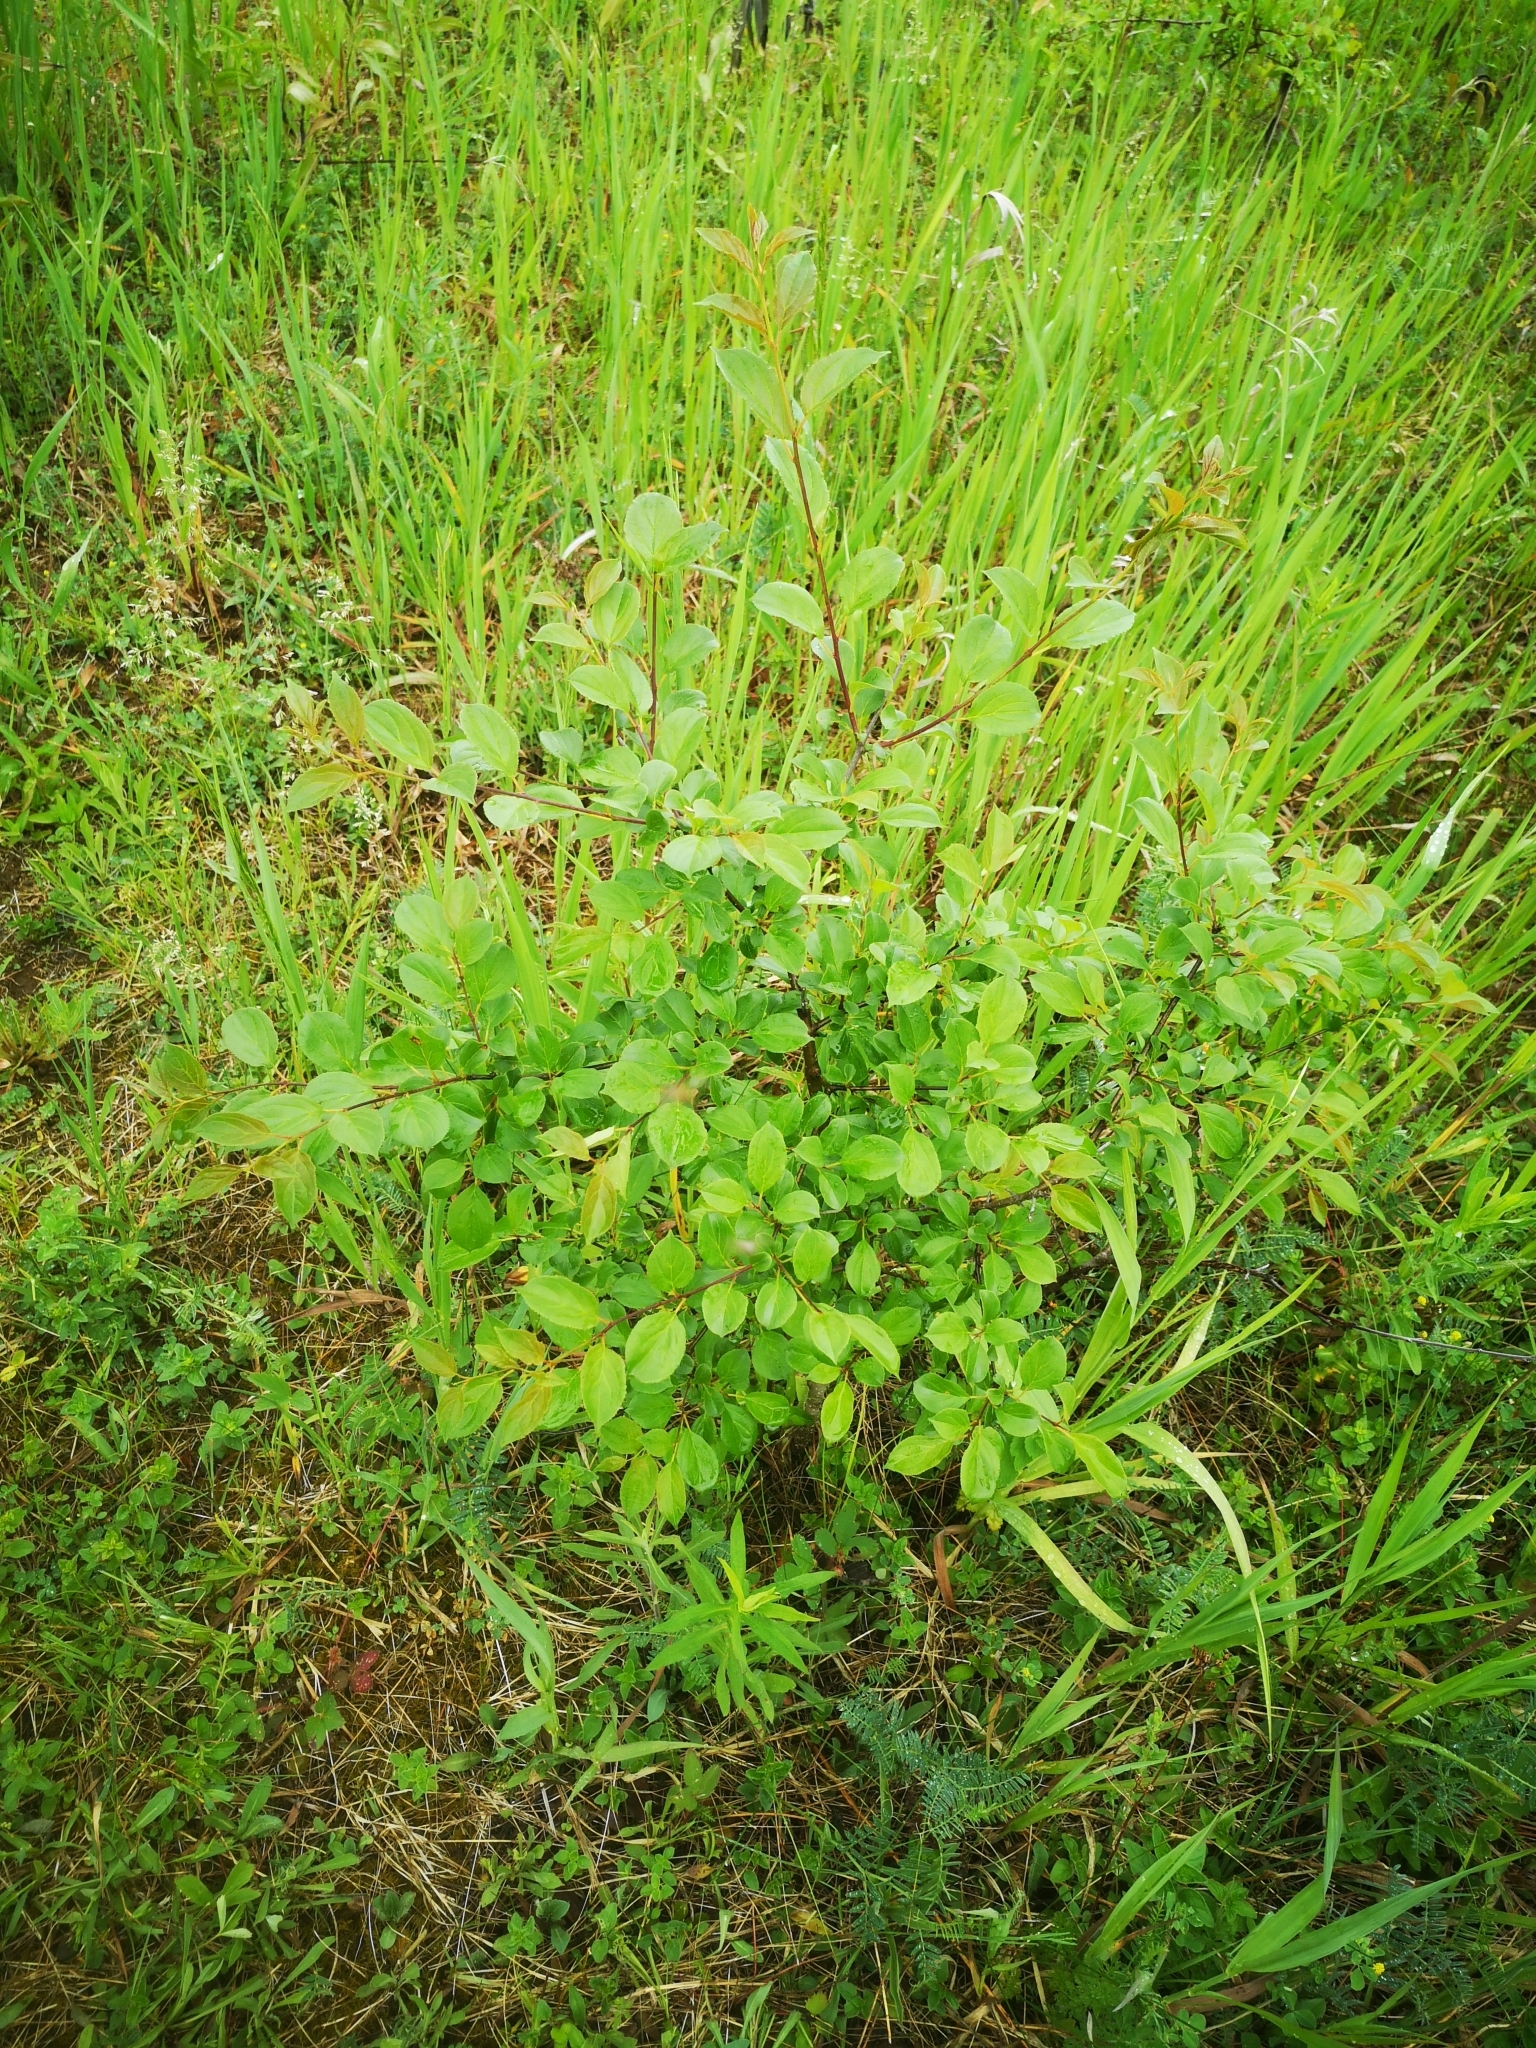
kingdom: Plantae
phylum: Tracheophyta
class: Magnoliopsida
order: Rosales
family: Rhamnaceae
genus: Rhamnus
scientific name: Rhamnus cathartica
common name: Common buckthorn
